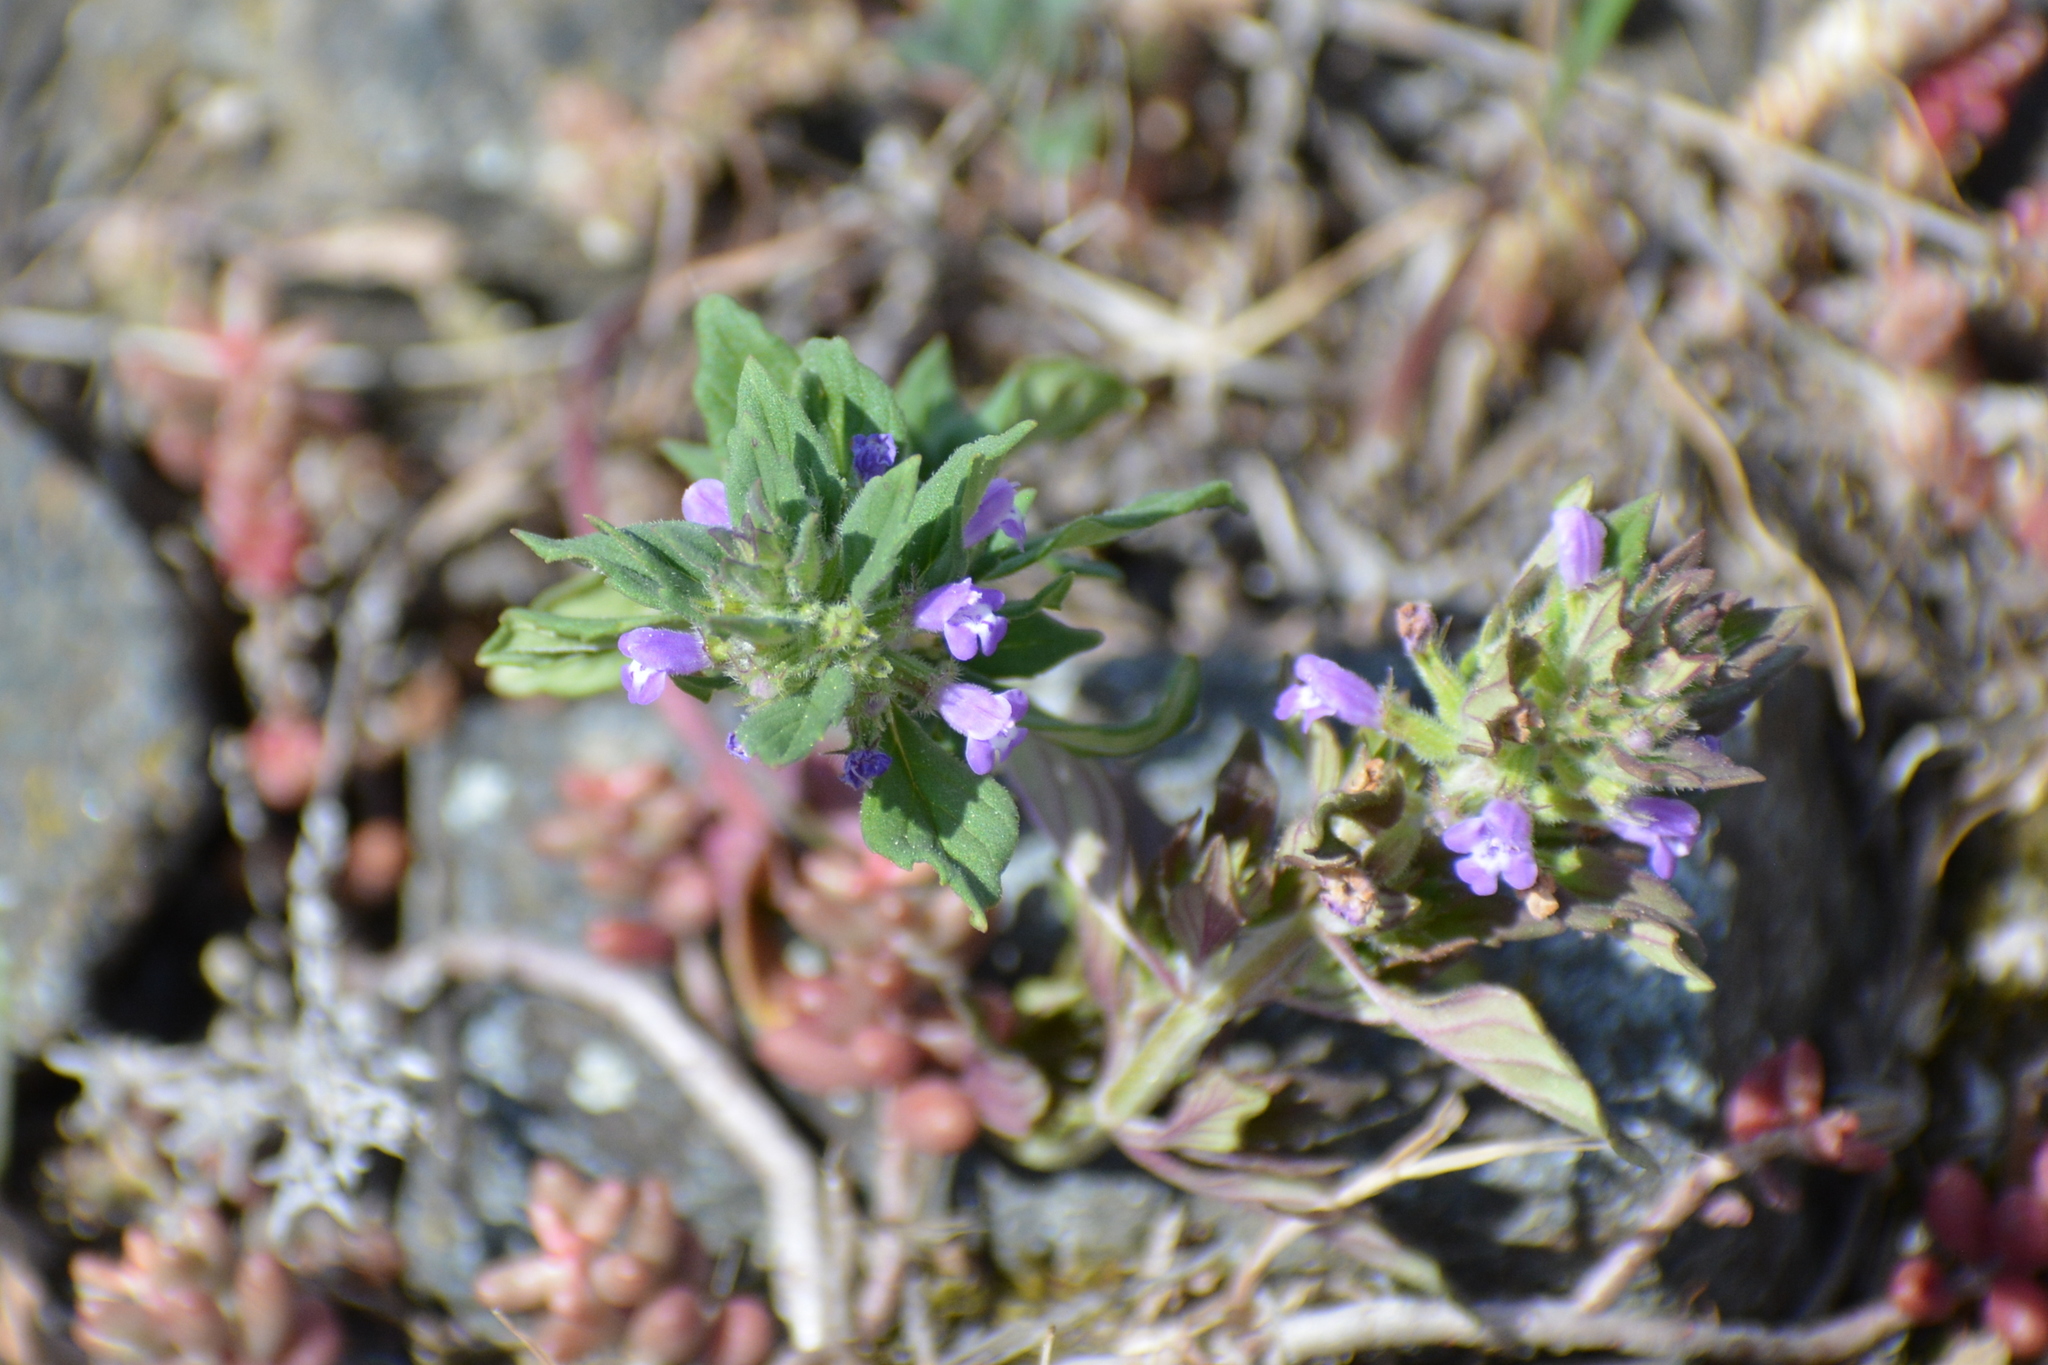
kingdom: Plantae
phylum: Tracheophyta
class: Magnoliopsida
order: Lamiales
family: Lamiaceae
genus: Clinopodium
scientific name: Clinopodium acinos
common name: Basil thyme
